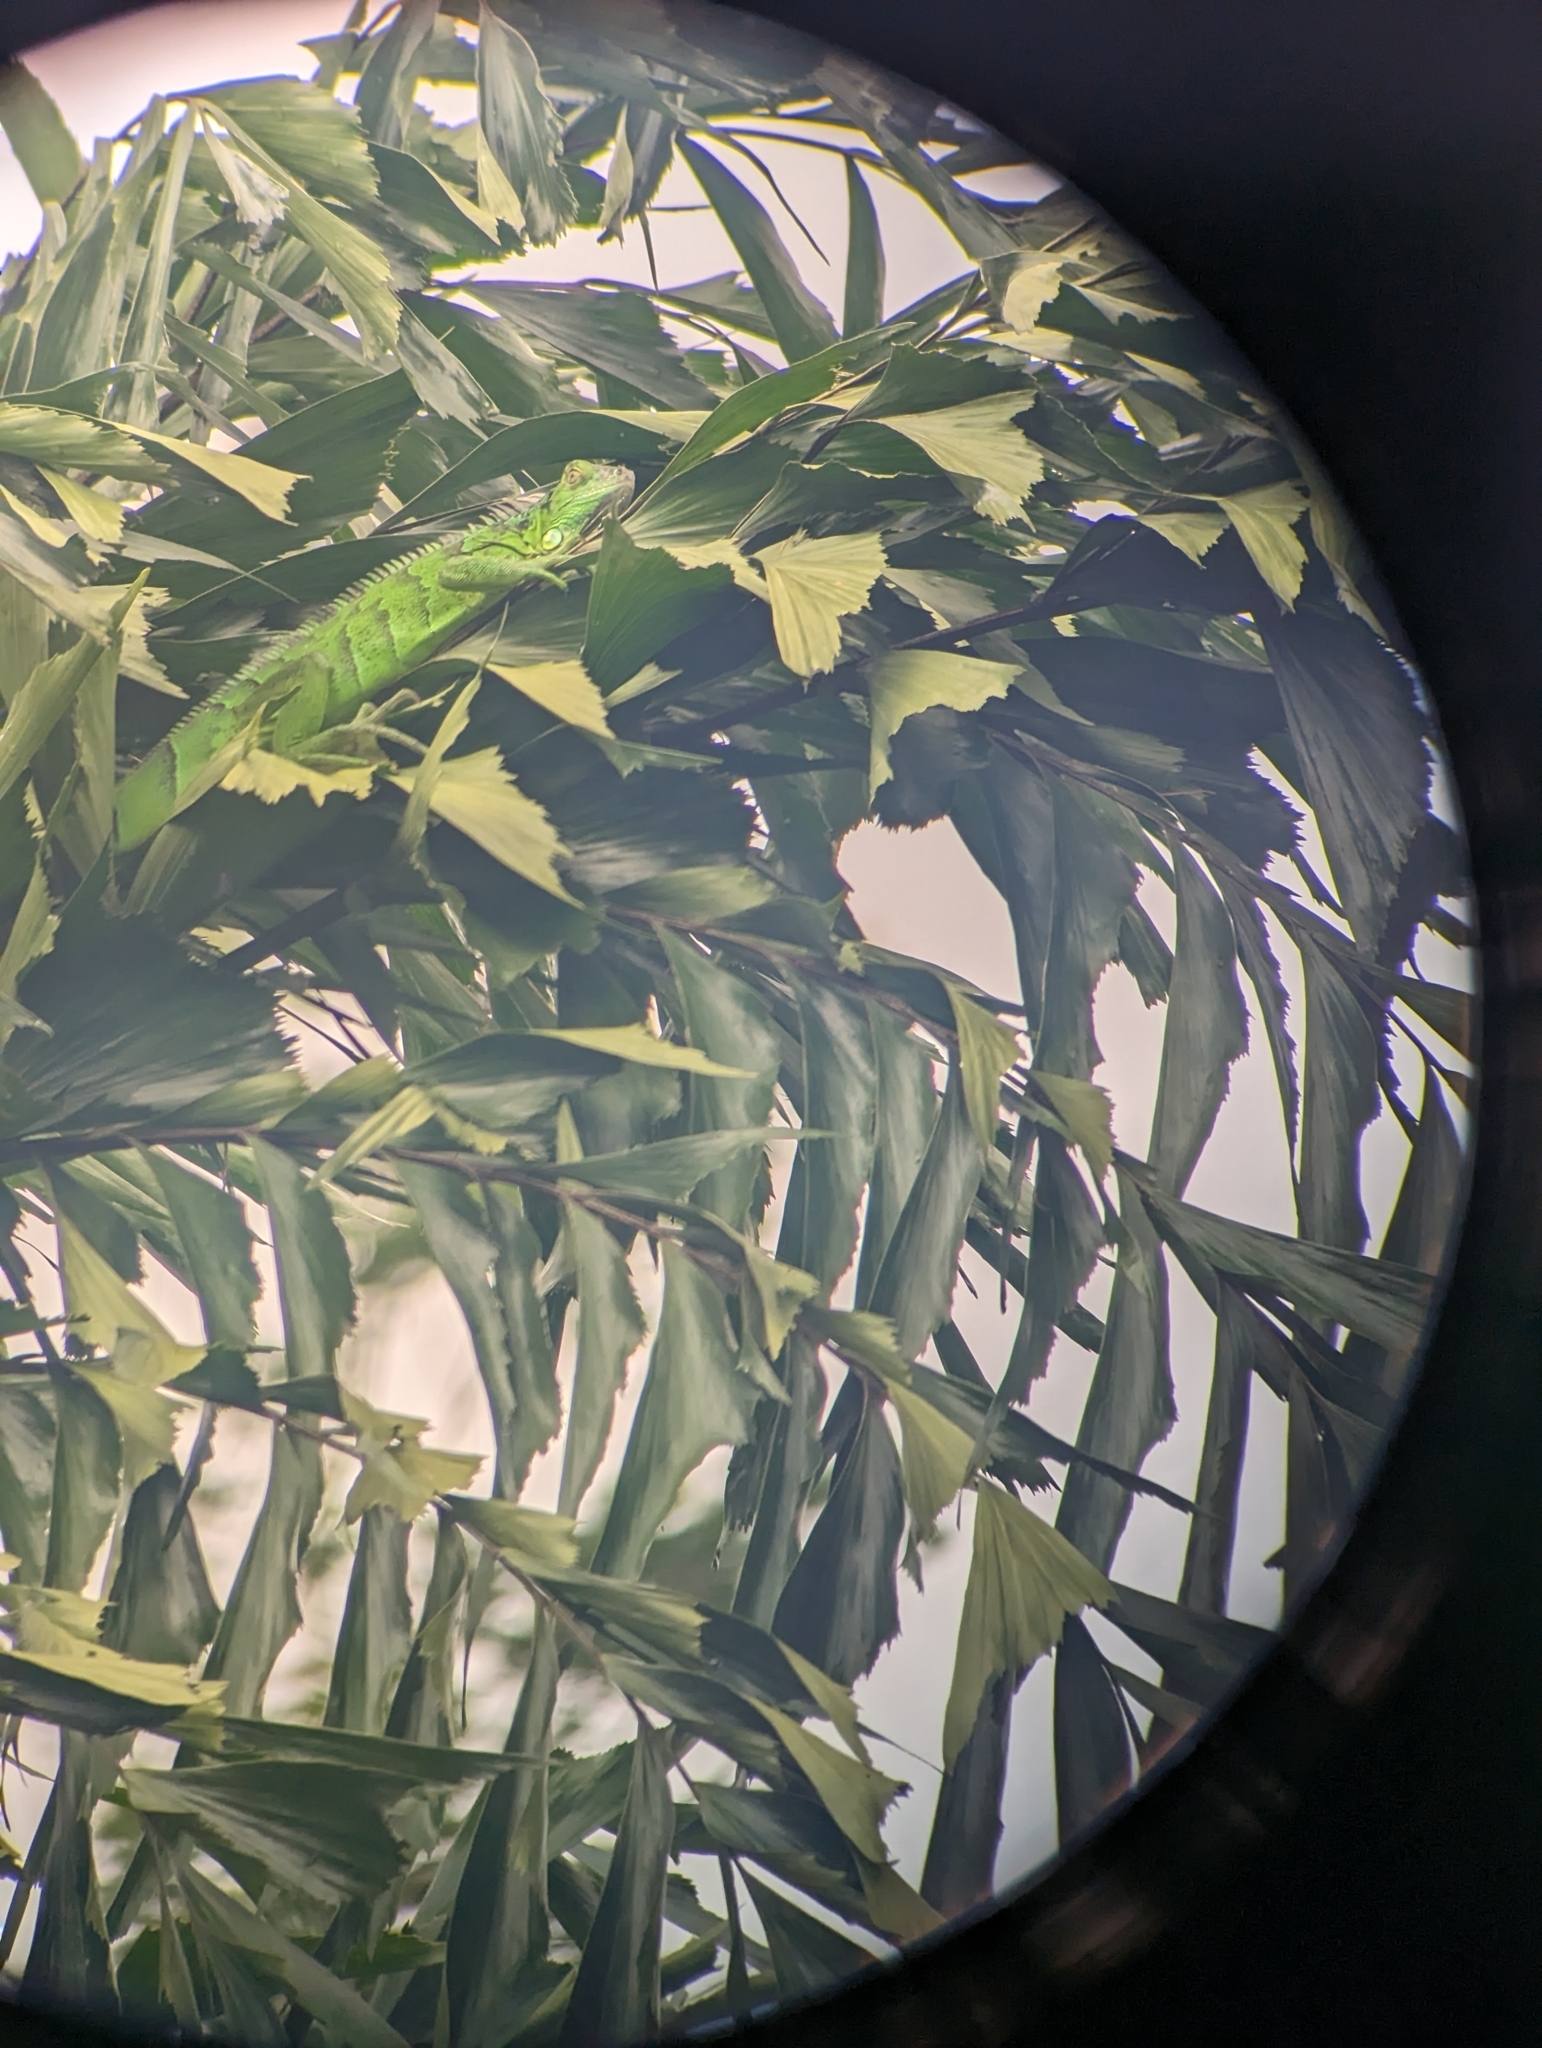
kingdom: Animalia
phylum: Chordata
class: Squamata
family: Iguanidae
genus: Iguana
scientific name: Iguana iguana
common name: Green iguana
